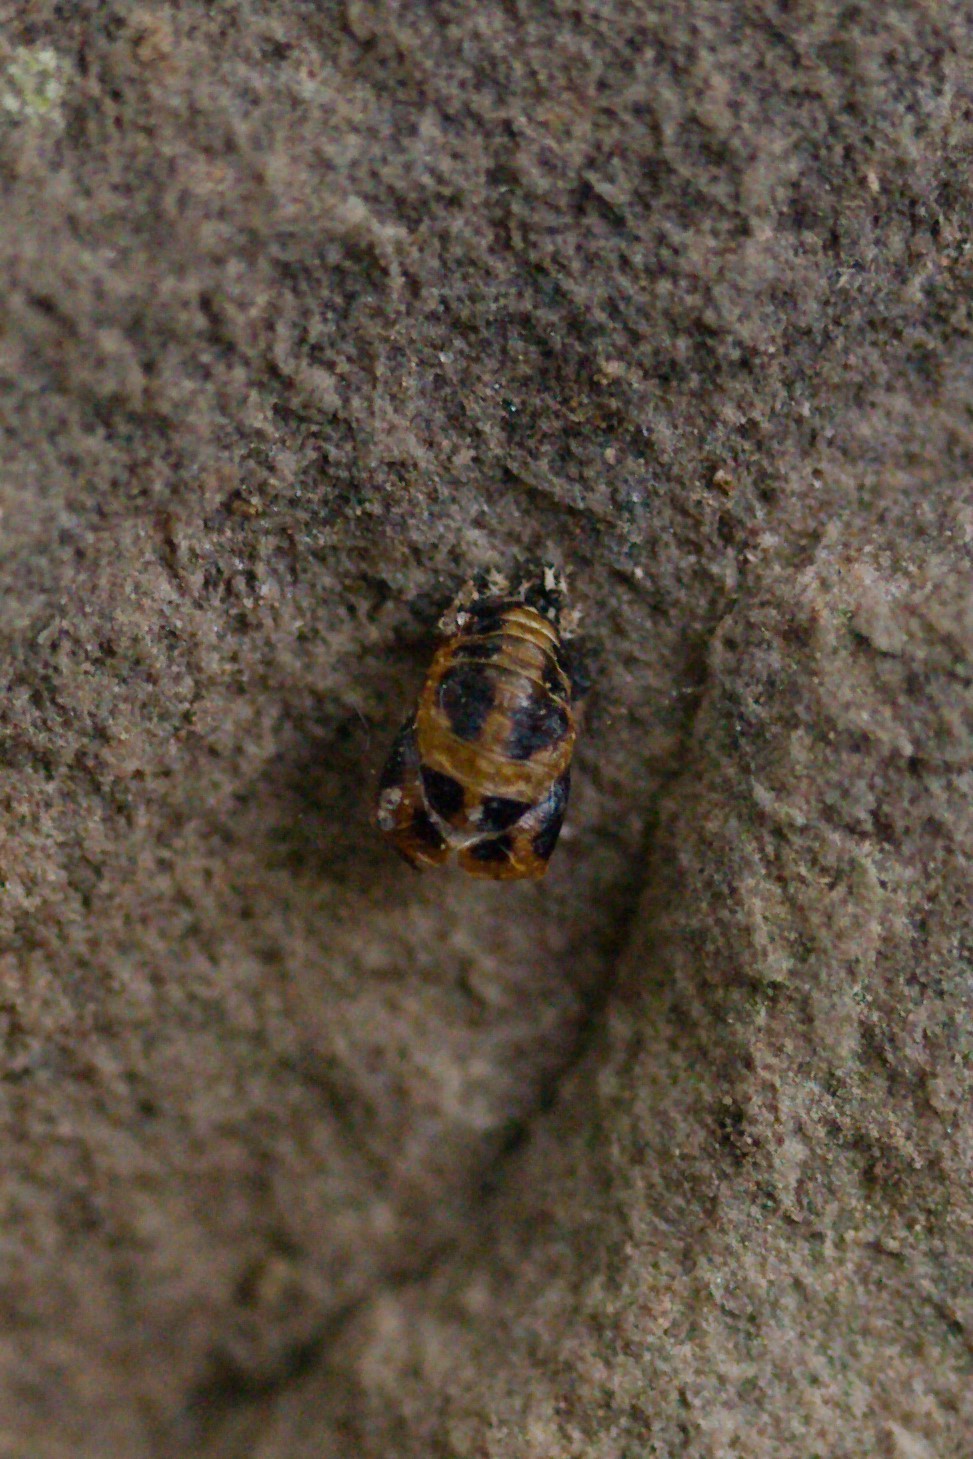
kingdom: Animalia
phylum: Arthropoda
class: Insecta
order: Coleoptera
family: Coccinellidae
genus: Harmonia
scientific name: Harmonia axyridis
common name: Harlequin ladybird
